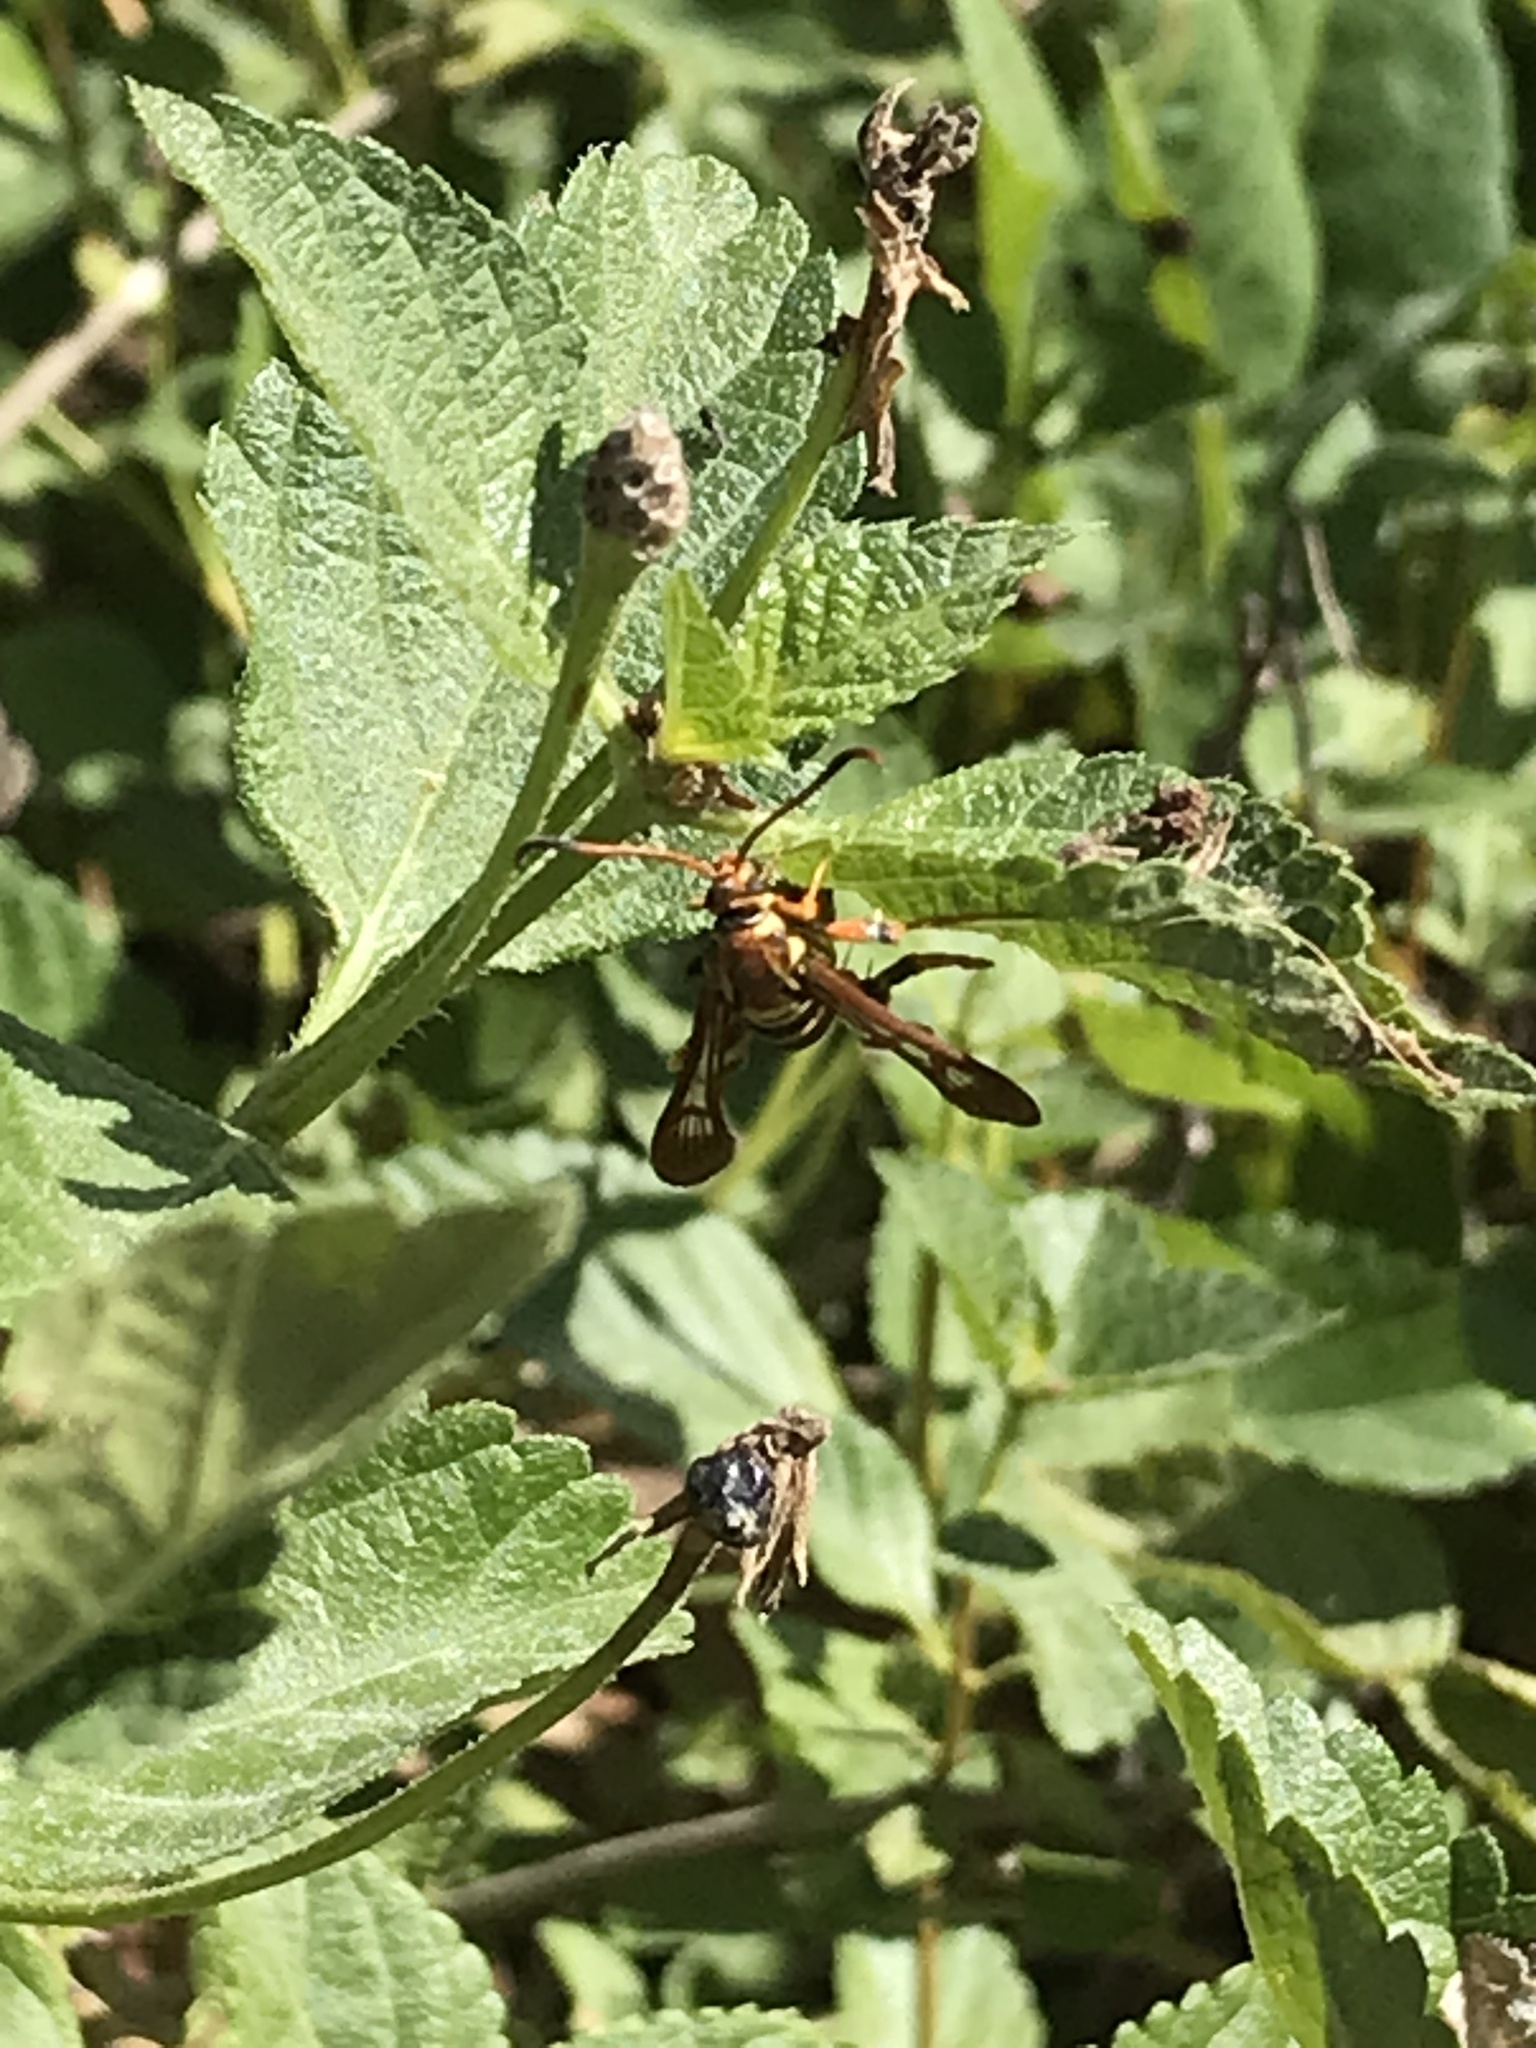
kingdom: Animalia
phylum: Arthropoda
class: Insecta
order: Lepidoptera
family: Sesiidae
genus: Carmenta
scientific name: Carmenta armasata
